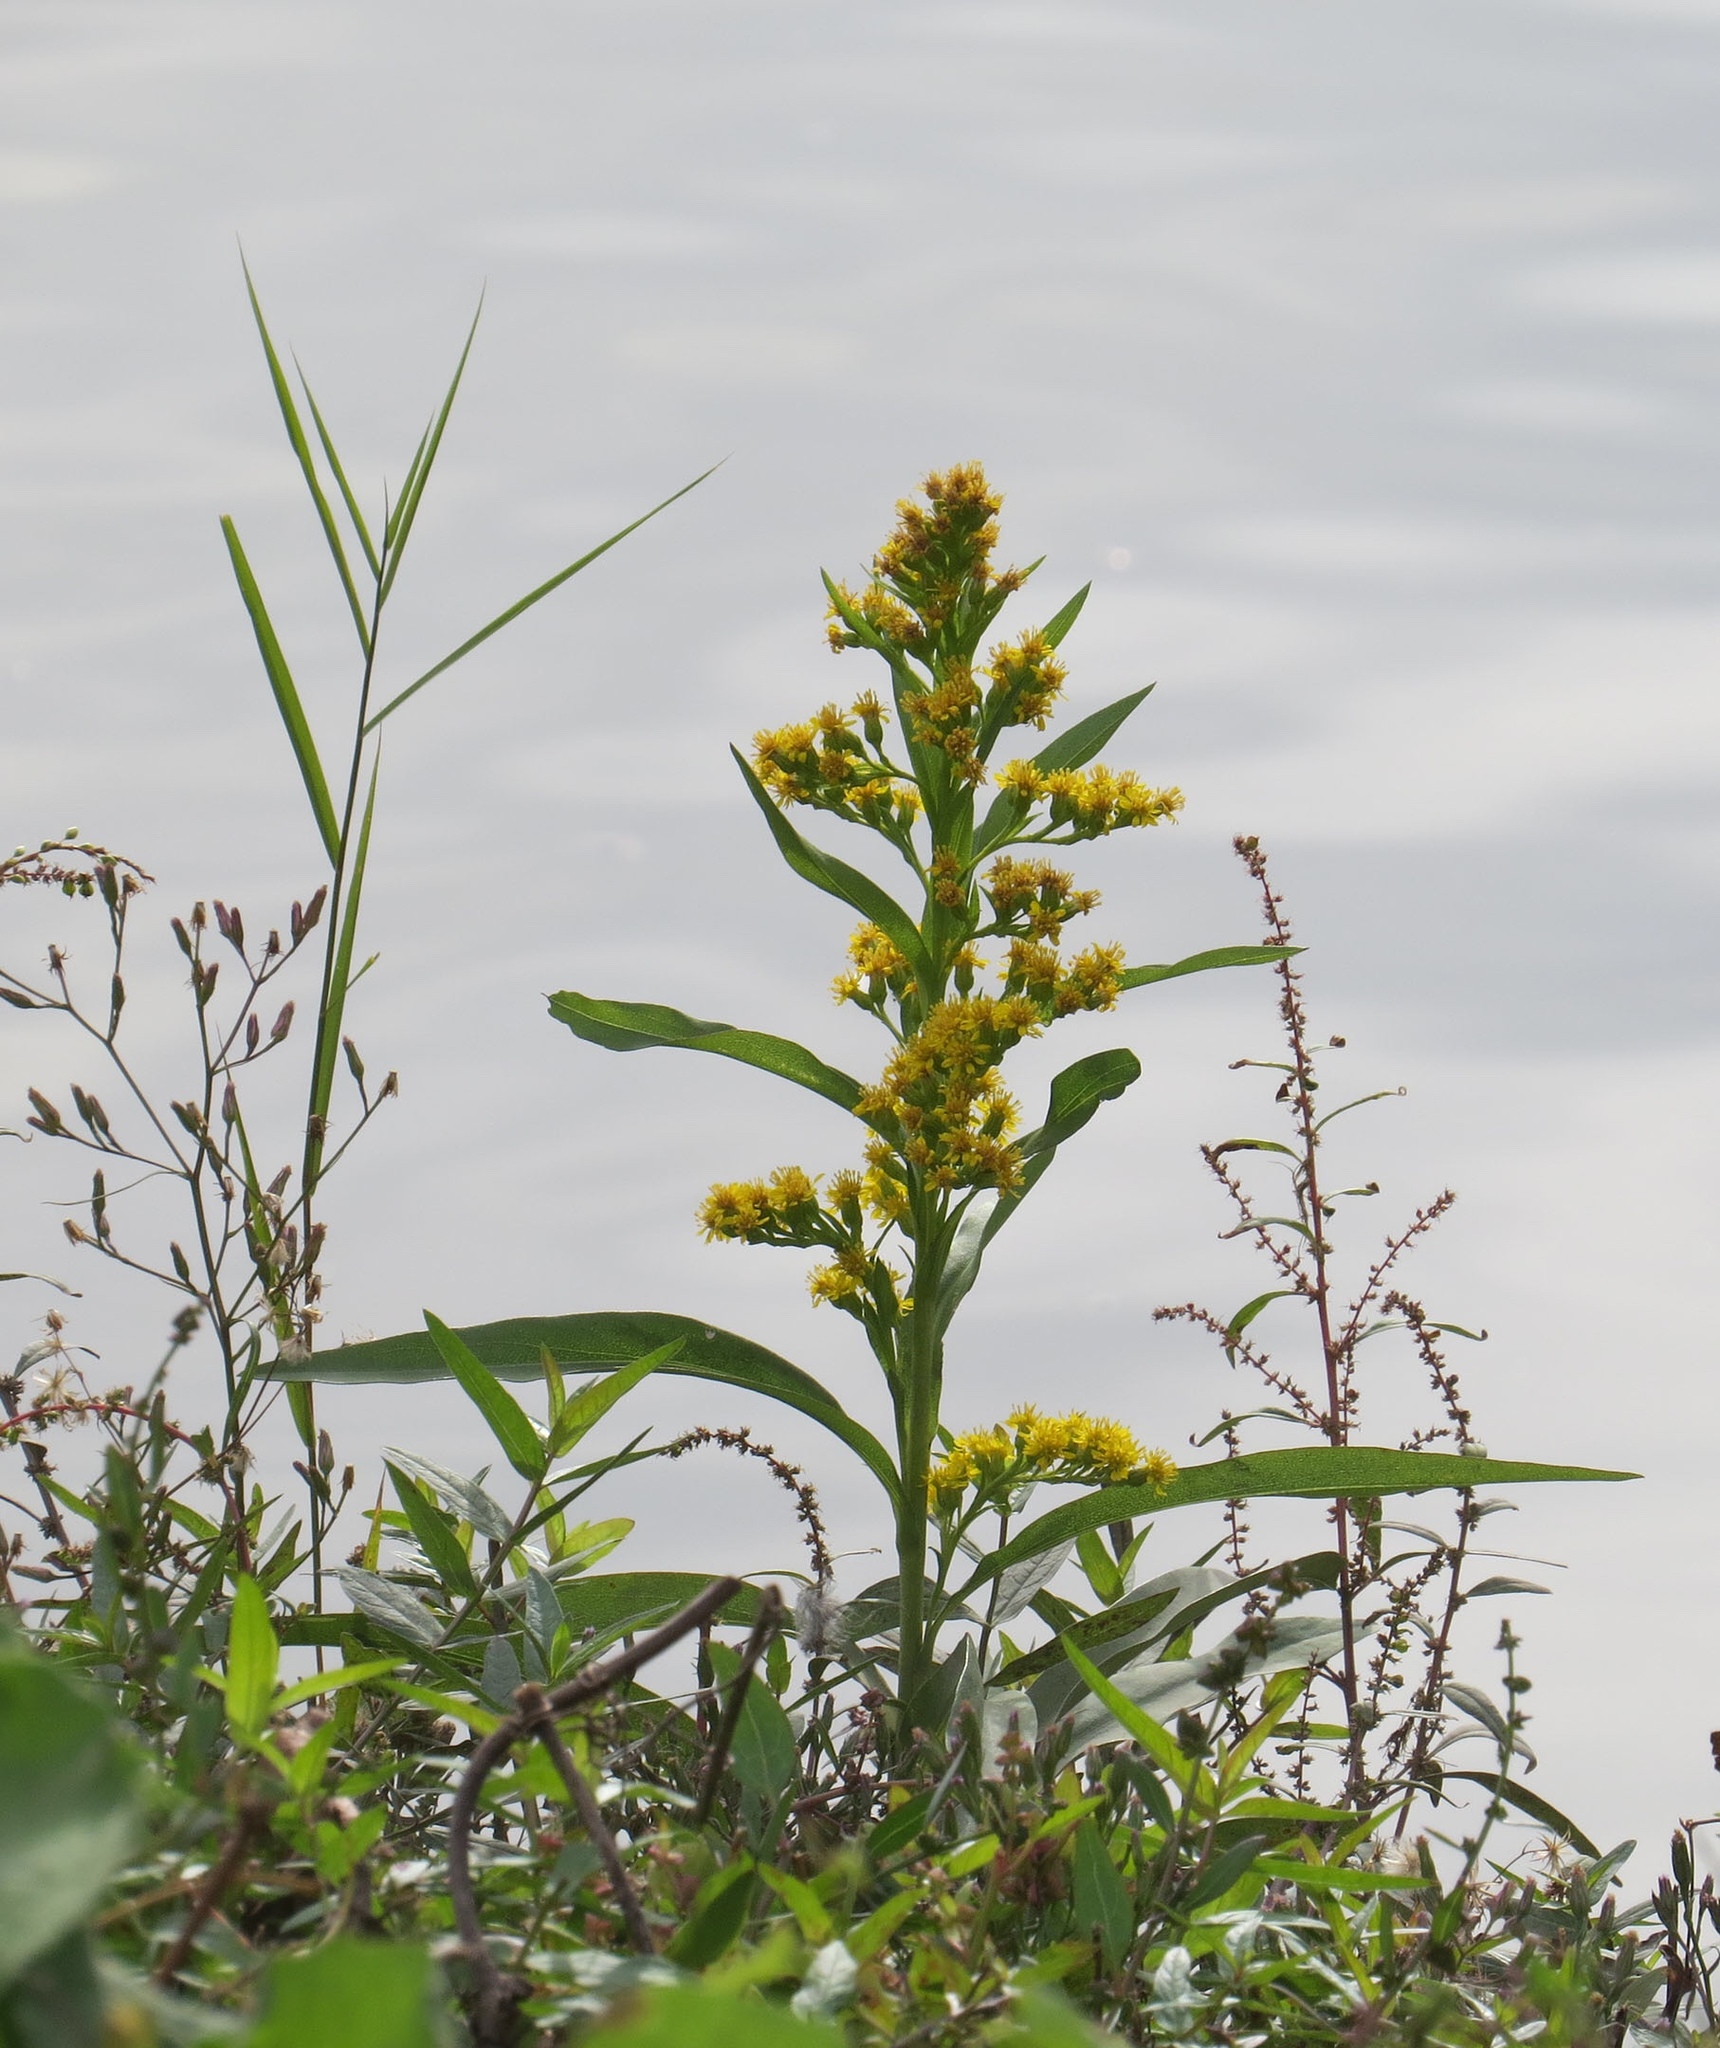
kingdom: Plantae
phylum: Tracheophyta
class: Magnoliopsida
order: Asterales
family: Asteraceae
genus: Solidago
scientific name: Solidago sempervirens
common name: Salt-marsh goldenrod
